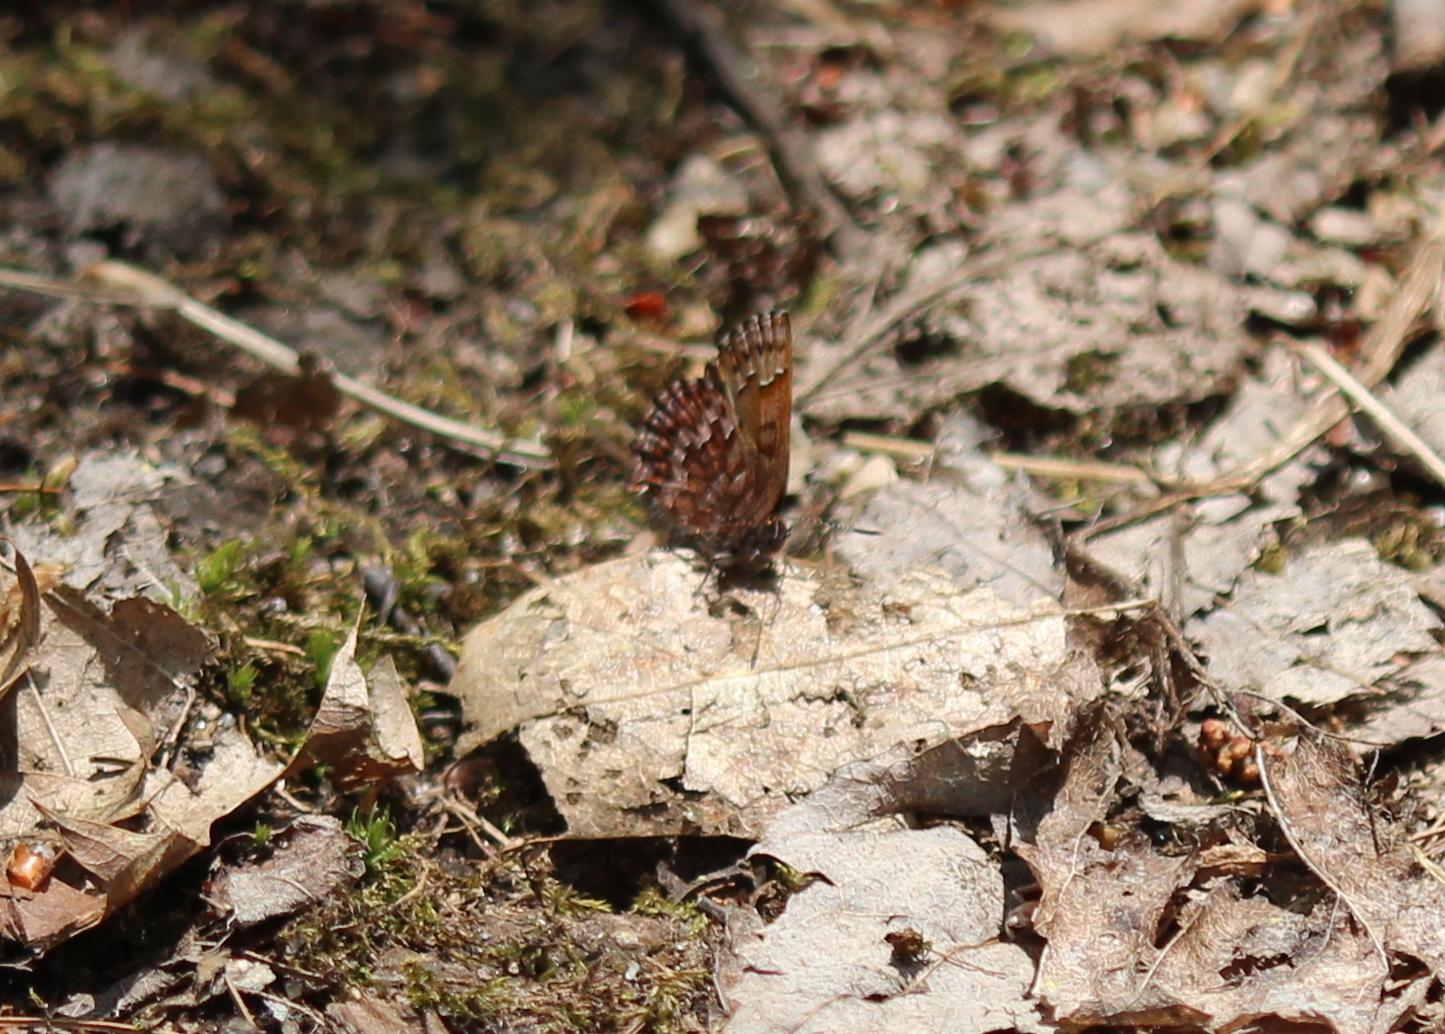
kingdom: Animalia
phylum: Arthropoda
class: Insecta
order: Lepidoptera
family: Lycaenidae
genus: Incisalia
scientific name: Incisalia niphon
